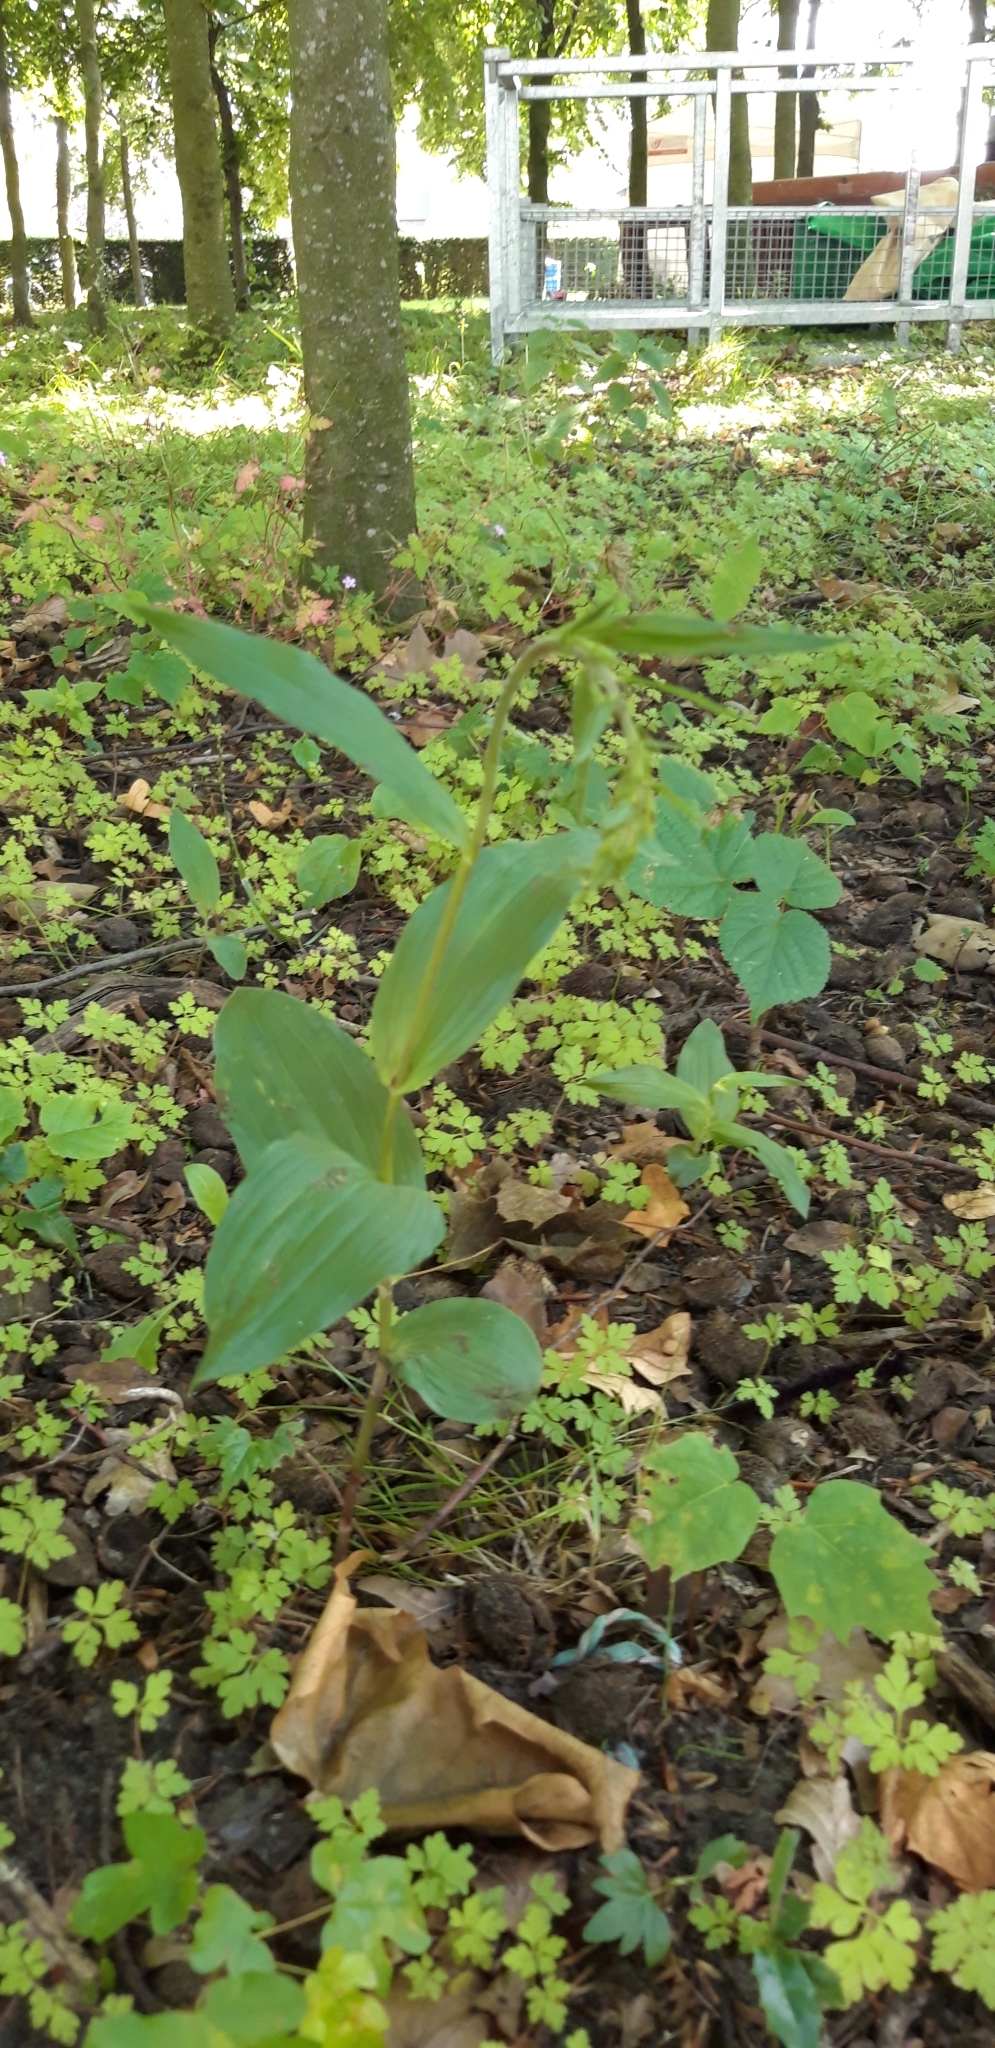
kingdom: Plantae
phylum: Tracheophyta
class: Liliopsida
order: Asparagales
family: Orchidaceae
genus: Epipactis
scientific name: Epipactis helleborine
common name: Broad-leaved helleborine
